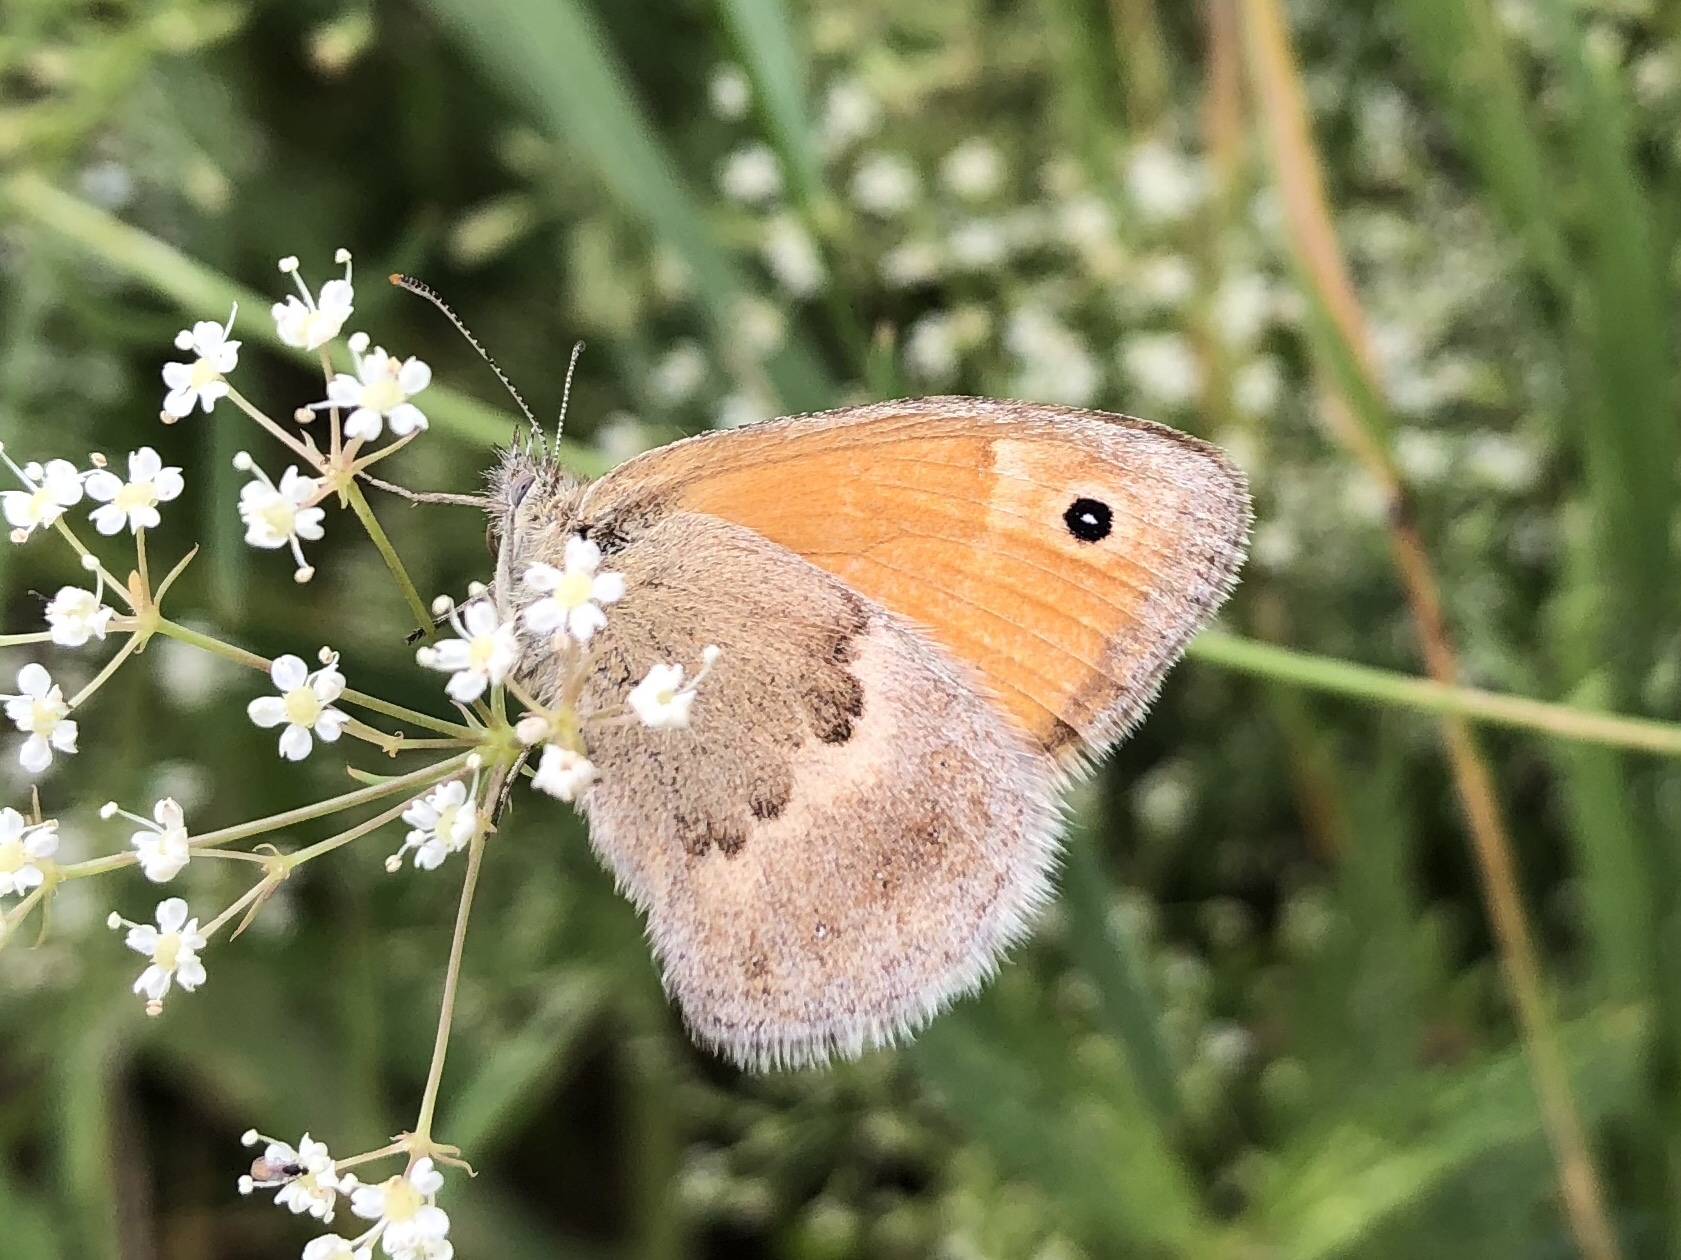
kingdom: Animalia
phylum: Arthropoda
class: Insecta
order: Lepidoptera
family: Nymphalidae
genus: Coenonympha
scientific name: Coenonympha pamphilus
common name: Small heath
